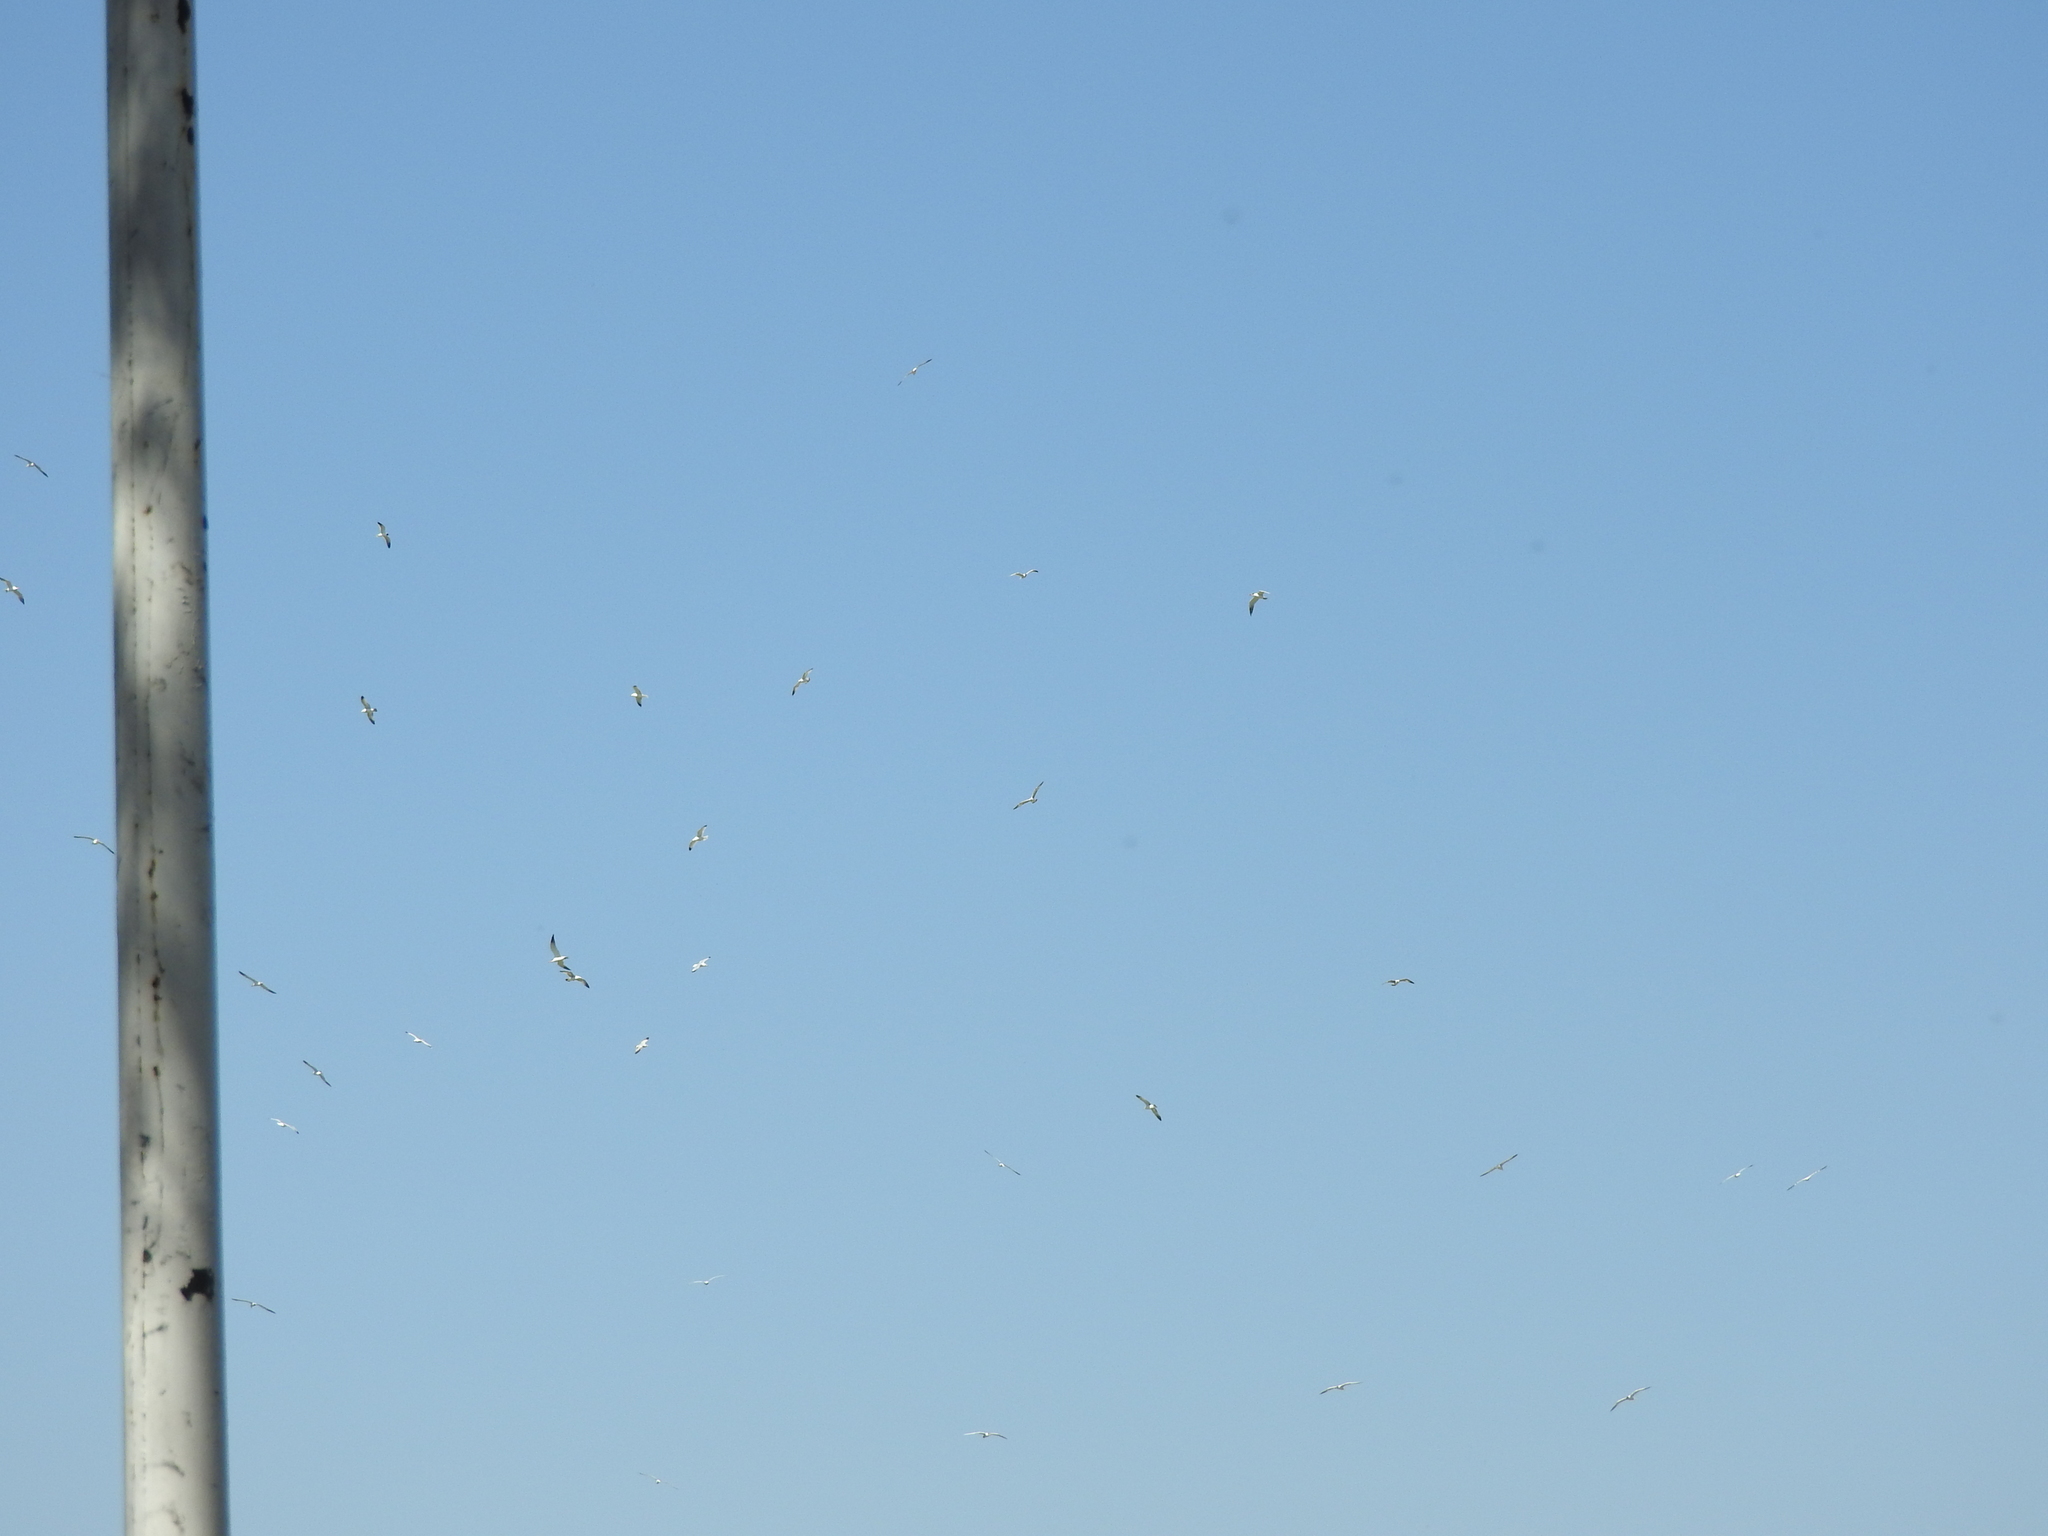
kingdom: Animalia
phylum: Chordata
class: Aves
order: Charadriiformes
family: Laridae
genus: Hydroprogne
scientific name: Hydroprogne caspia
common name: Caspian tern
